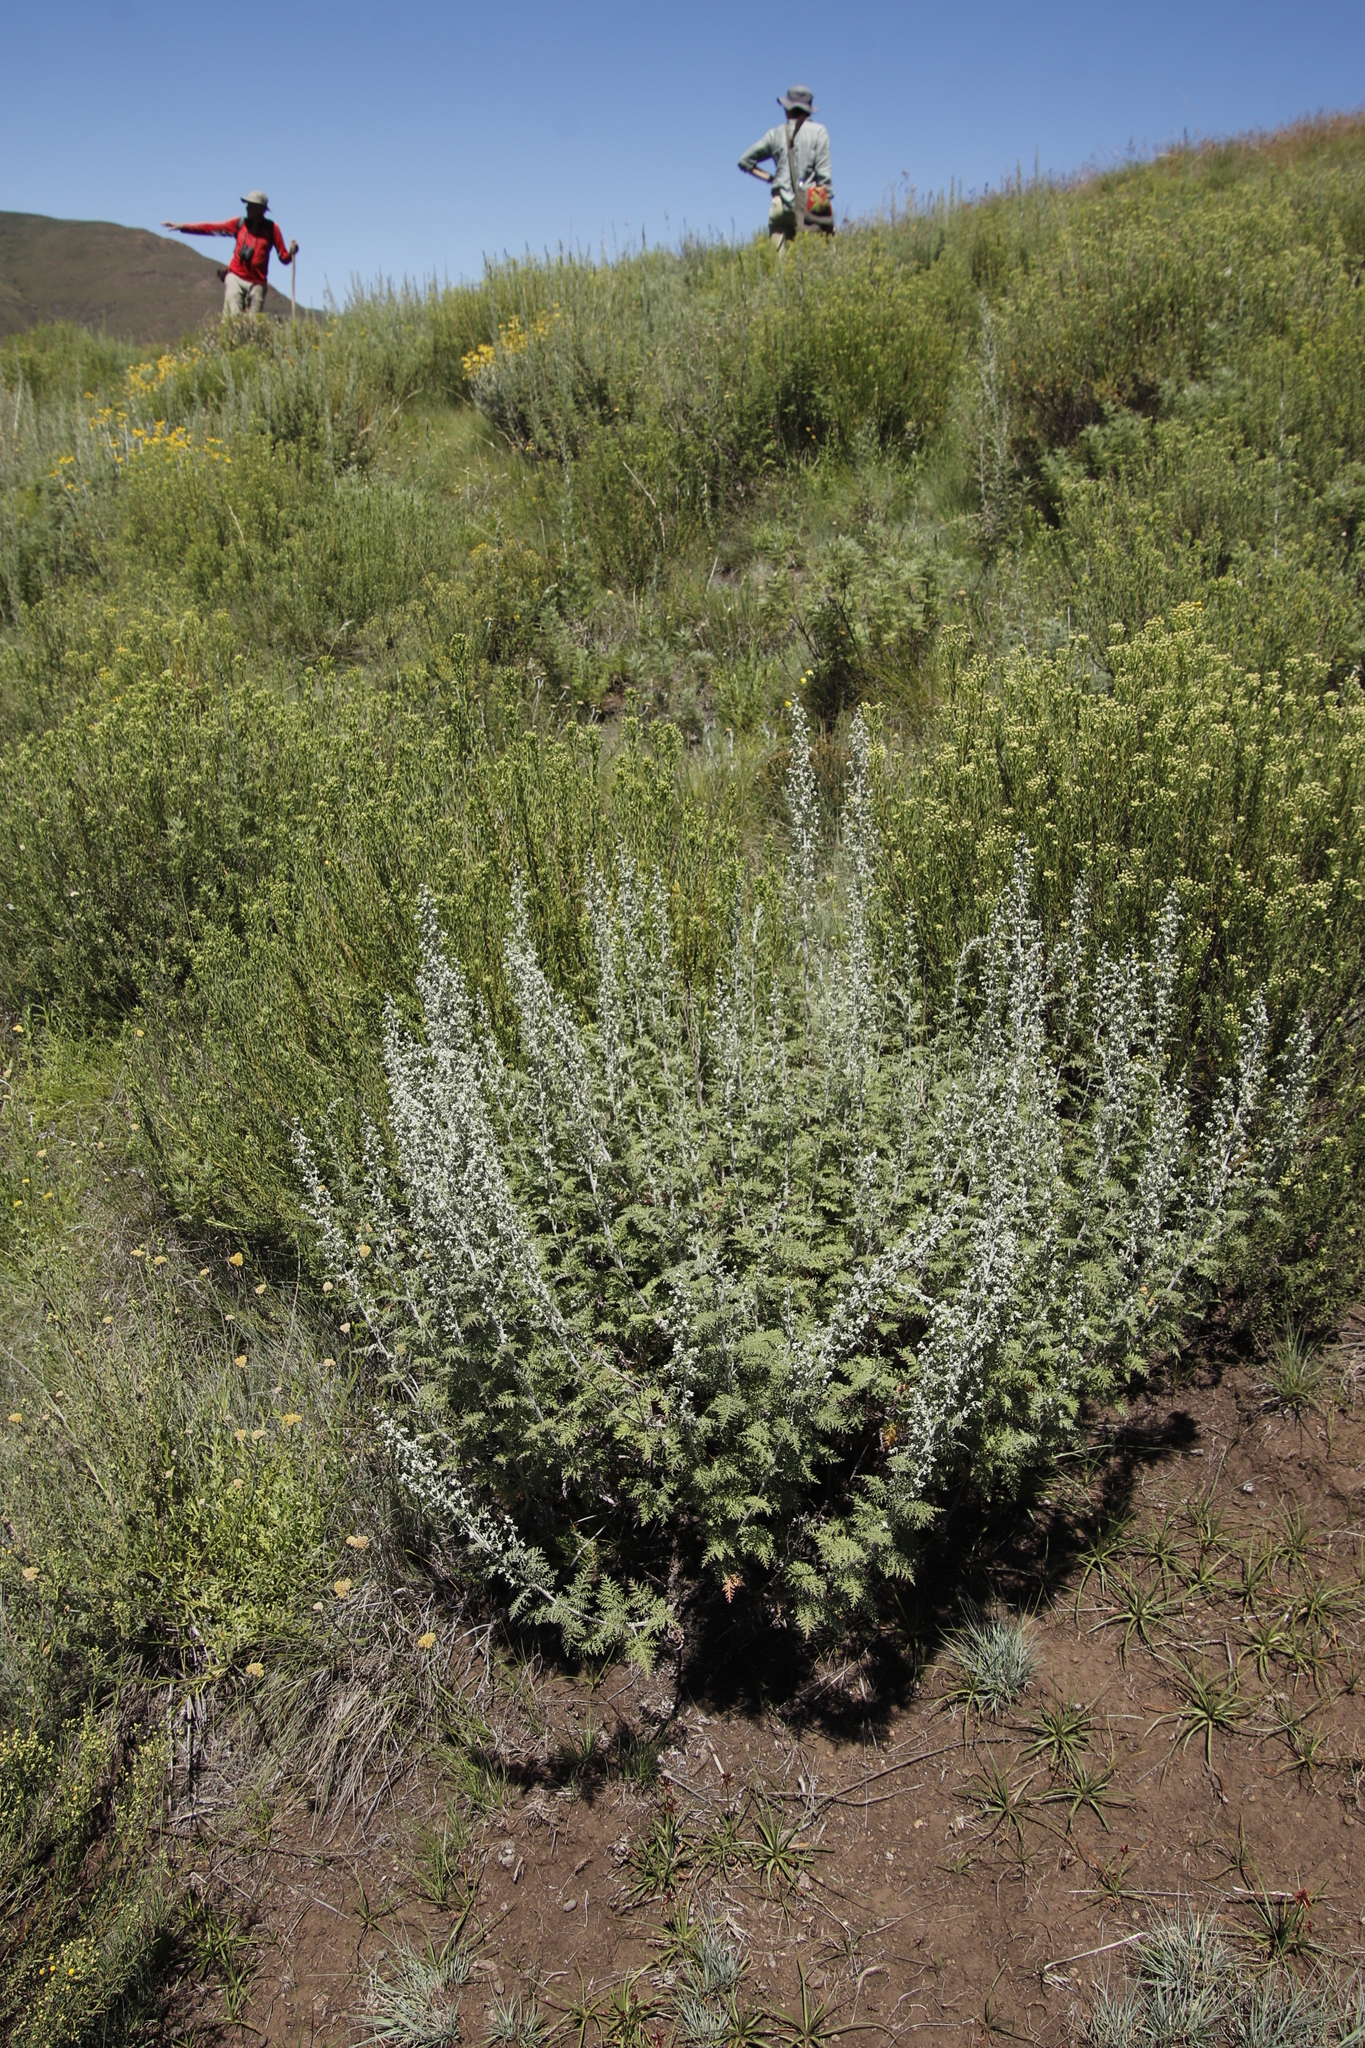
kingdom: Plantae
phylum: Tracheophyta
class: Magnoliopsida
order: Asterales
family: Asteraceae
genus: Artemisia
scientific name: Artemisia afra
